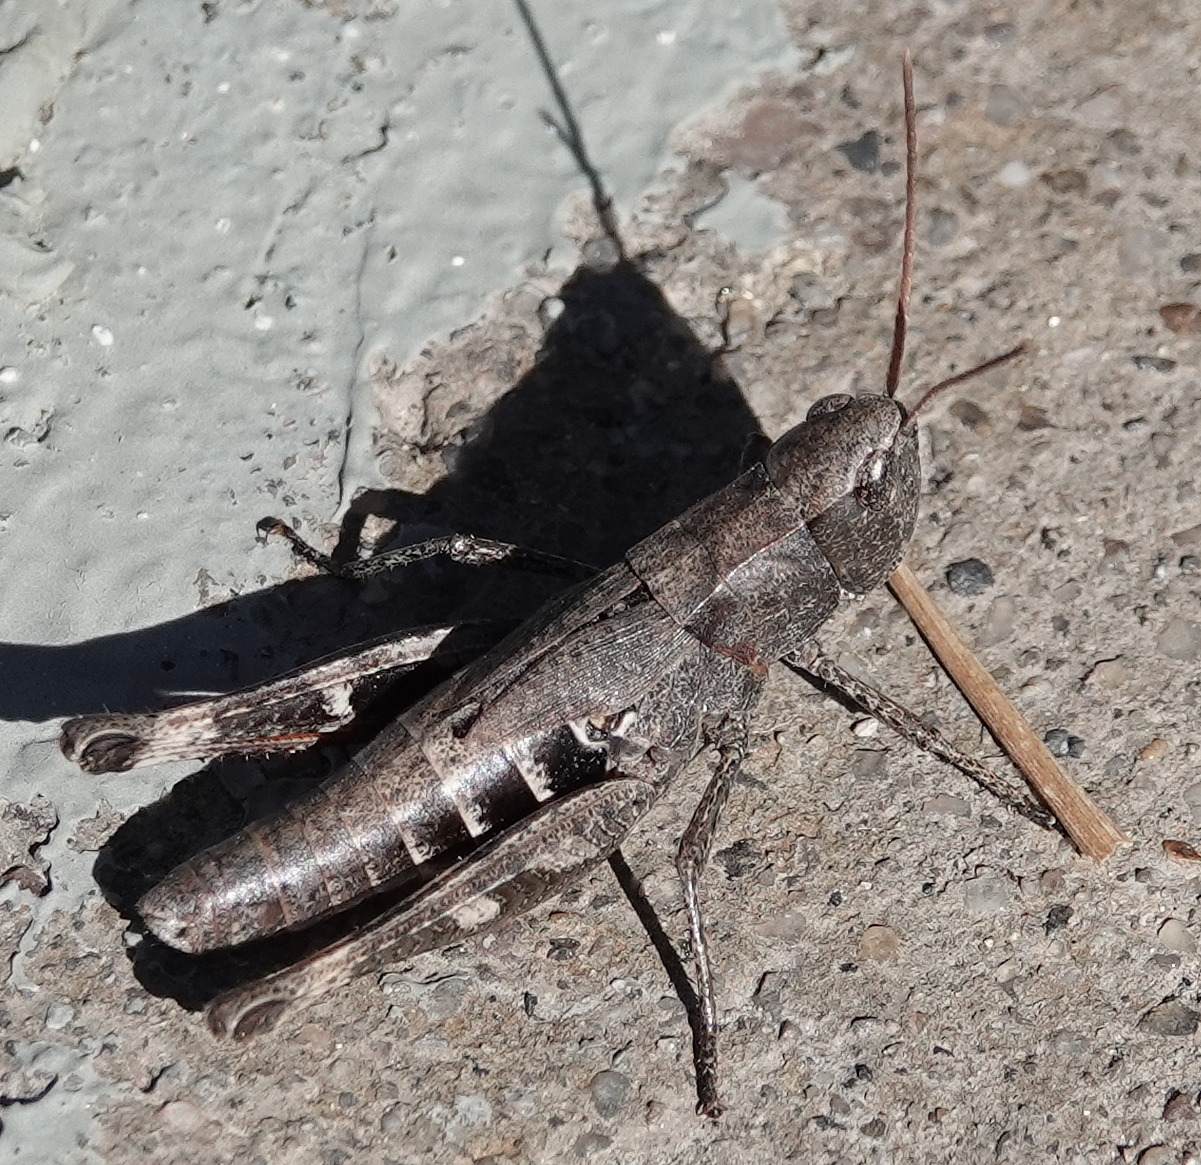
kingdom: Animalia
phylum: Arthropoda
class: Insecta
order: Orthoptera
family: Acrididae
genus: Chloealtis
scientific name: Chloealtis conspersa
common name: Sprinkled broad-winged grasshopper
